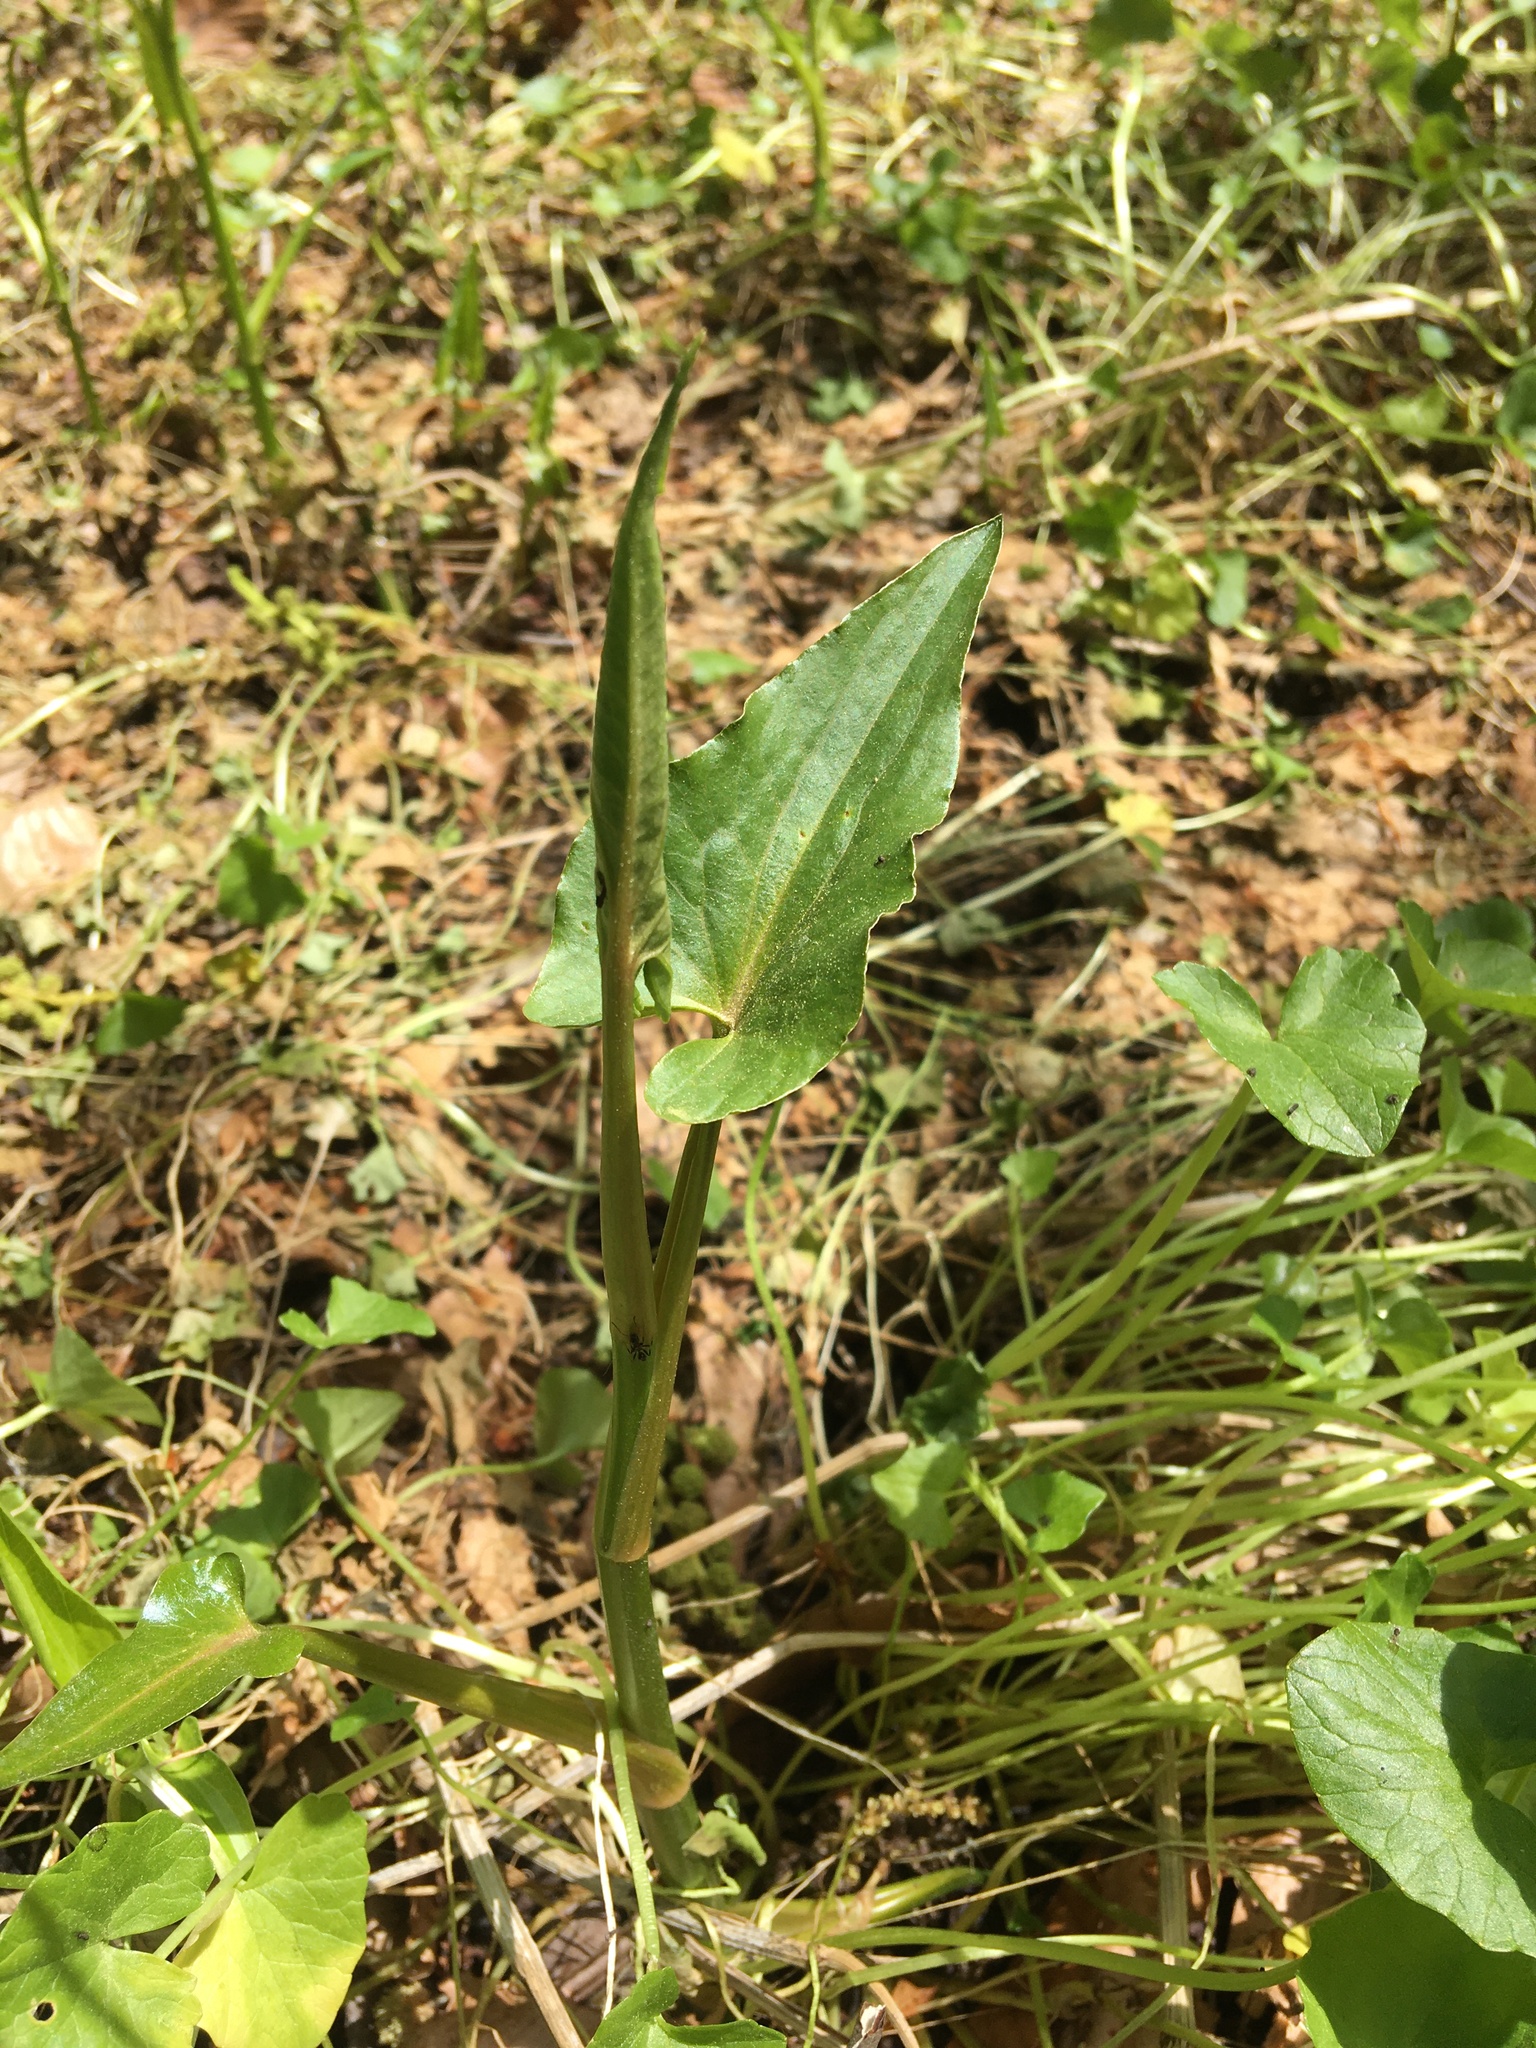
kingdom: Plantae
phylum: Tracheophyta
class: Liliopsida
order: Alismatales
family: Araceae
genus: Peltandra
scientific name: Peltandra virginica
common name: Arrow arum
